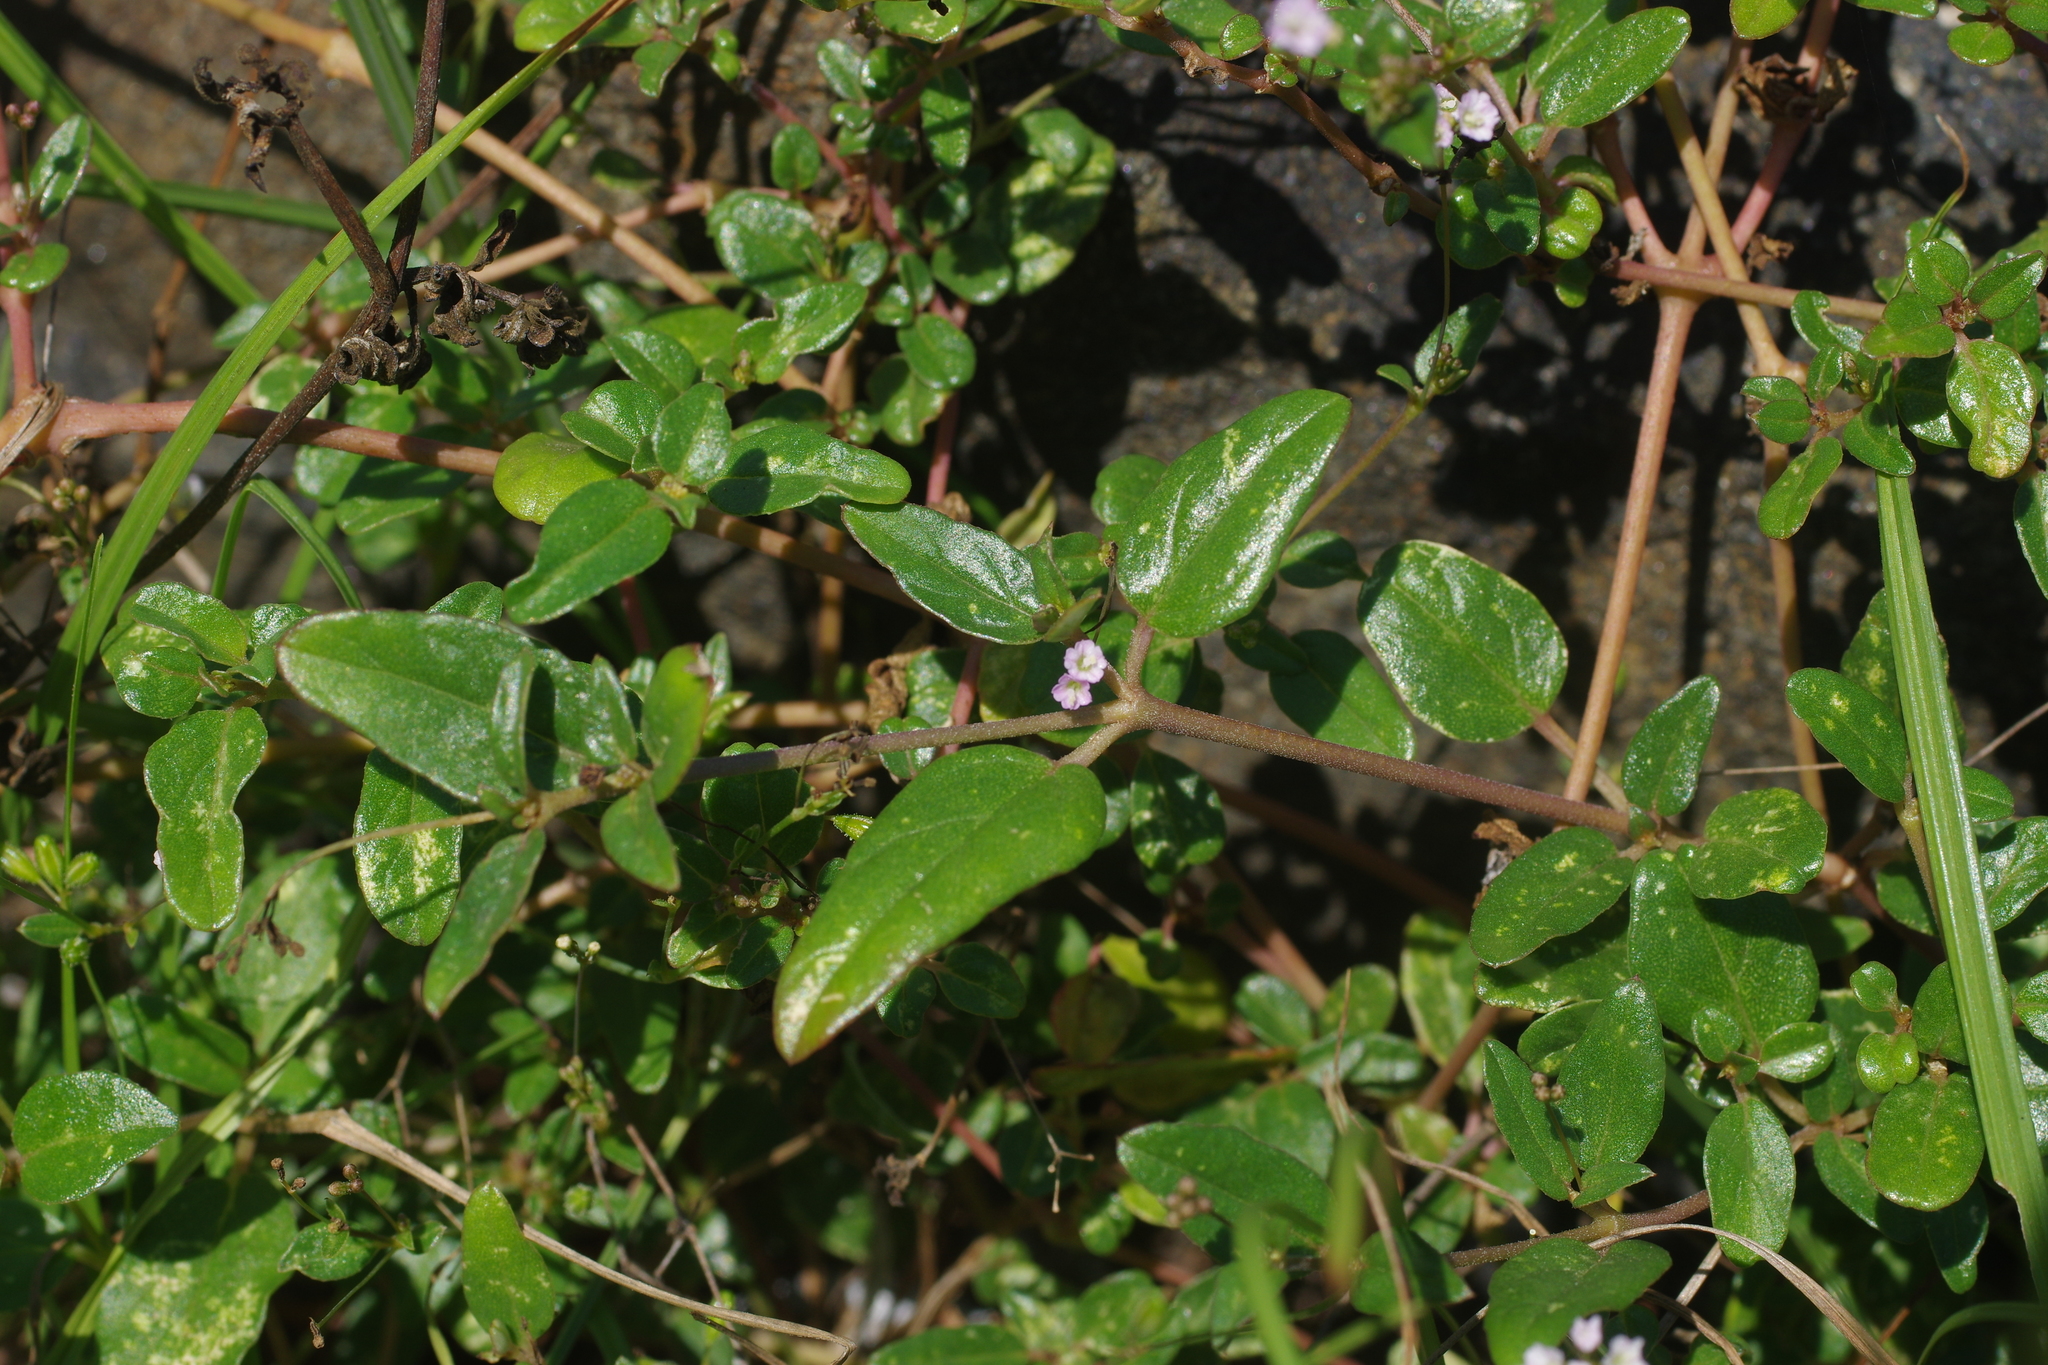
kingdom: Plantae
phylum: Tracheophyta
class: Magnoliopsida
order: Caryophyllales
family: Nyctaginaceae
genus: Boerhavia
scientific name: Boerhavia glabrata
